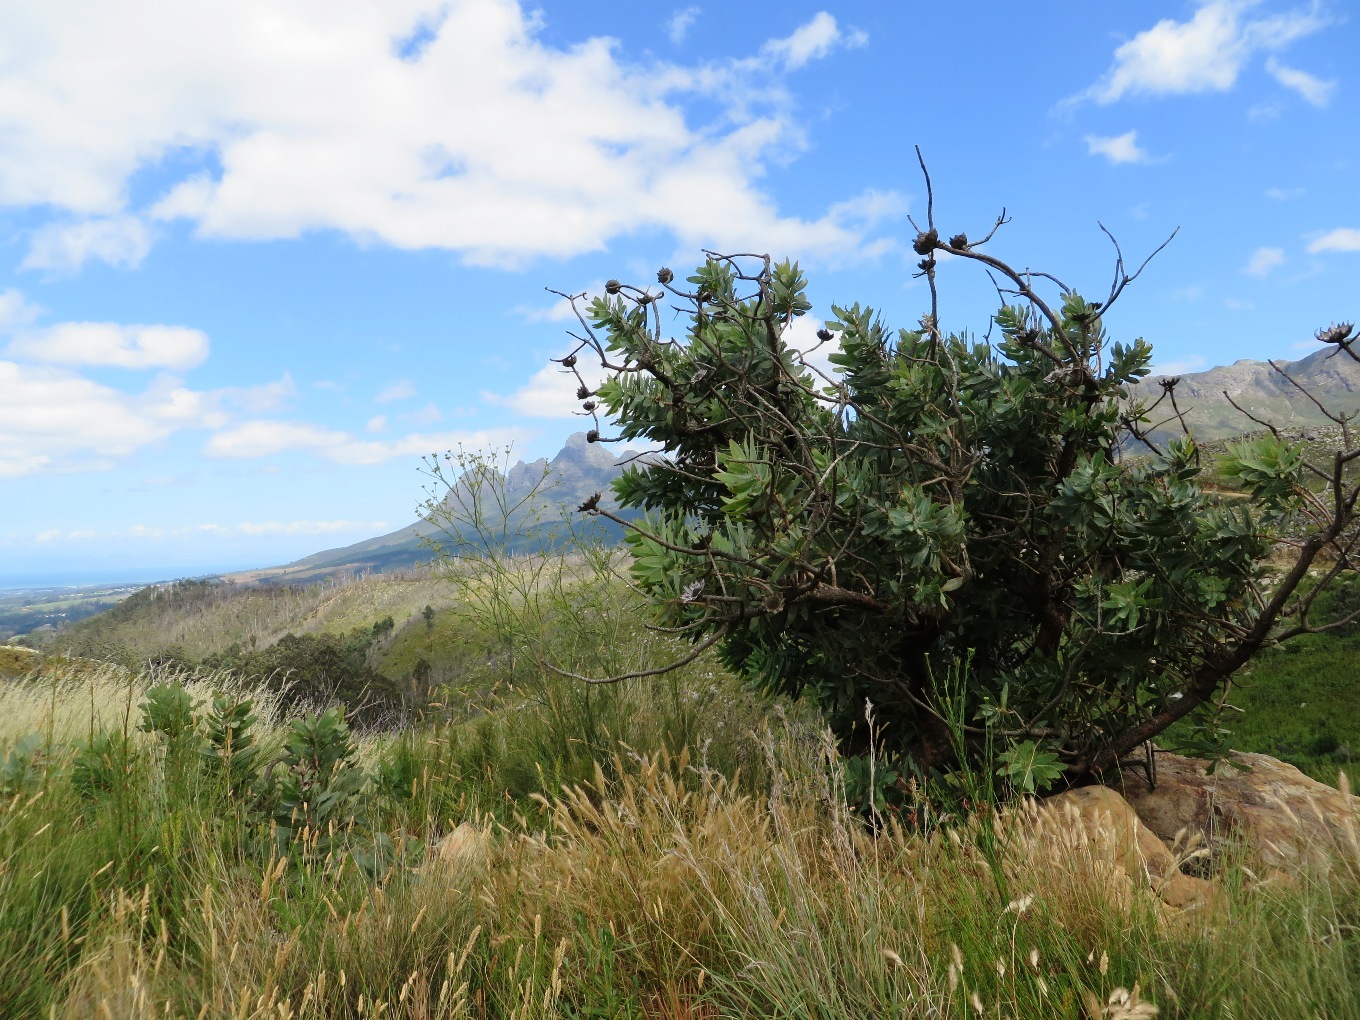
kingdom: Plantae
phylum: Tracheophyta
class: Magnoliopsida
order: Proteales
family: Proteaceae
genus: Protea
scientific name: Protea nitida
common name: Tree protea
